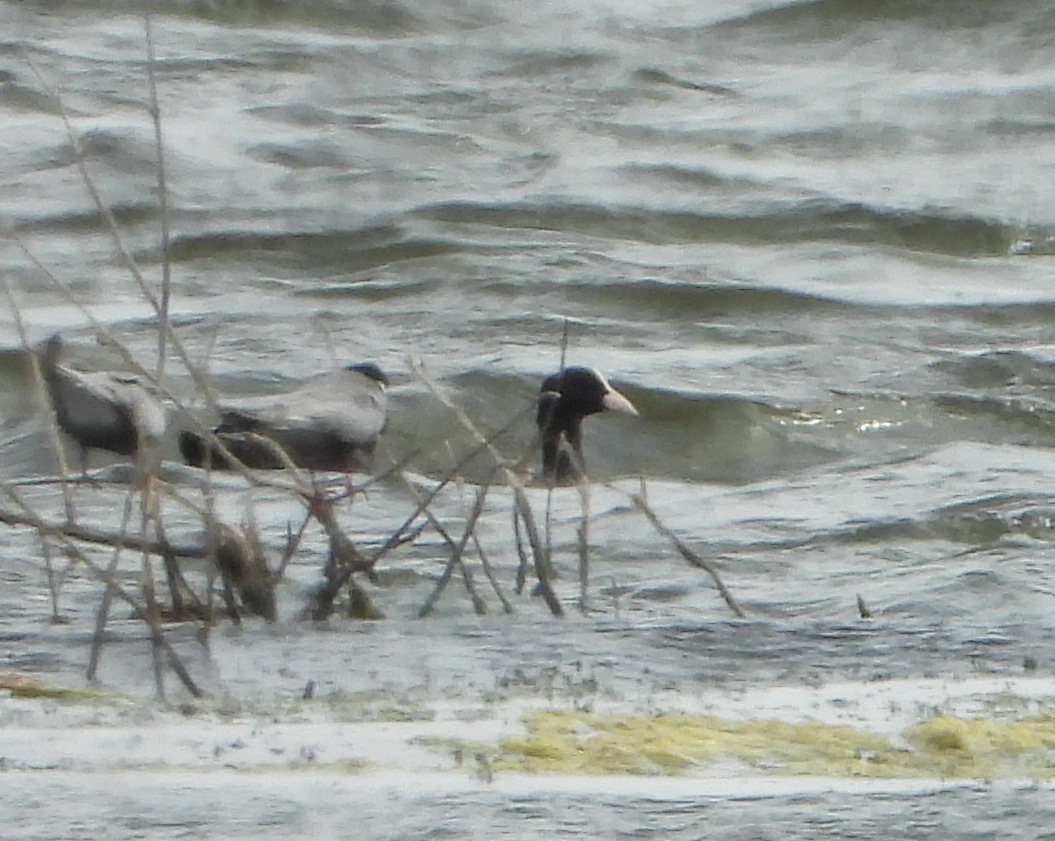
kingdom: Animalia
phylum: Chordata
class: Aves
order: Gruiformes
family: Rallidae
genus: Fulica
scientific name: Fulica atra
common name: Eurasian coot
